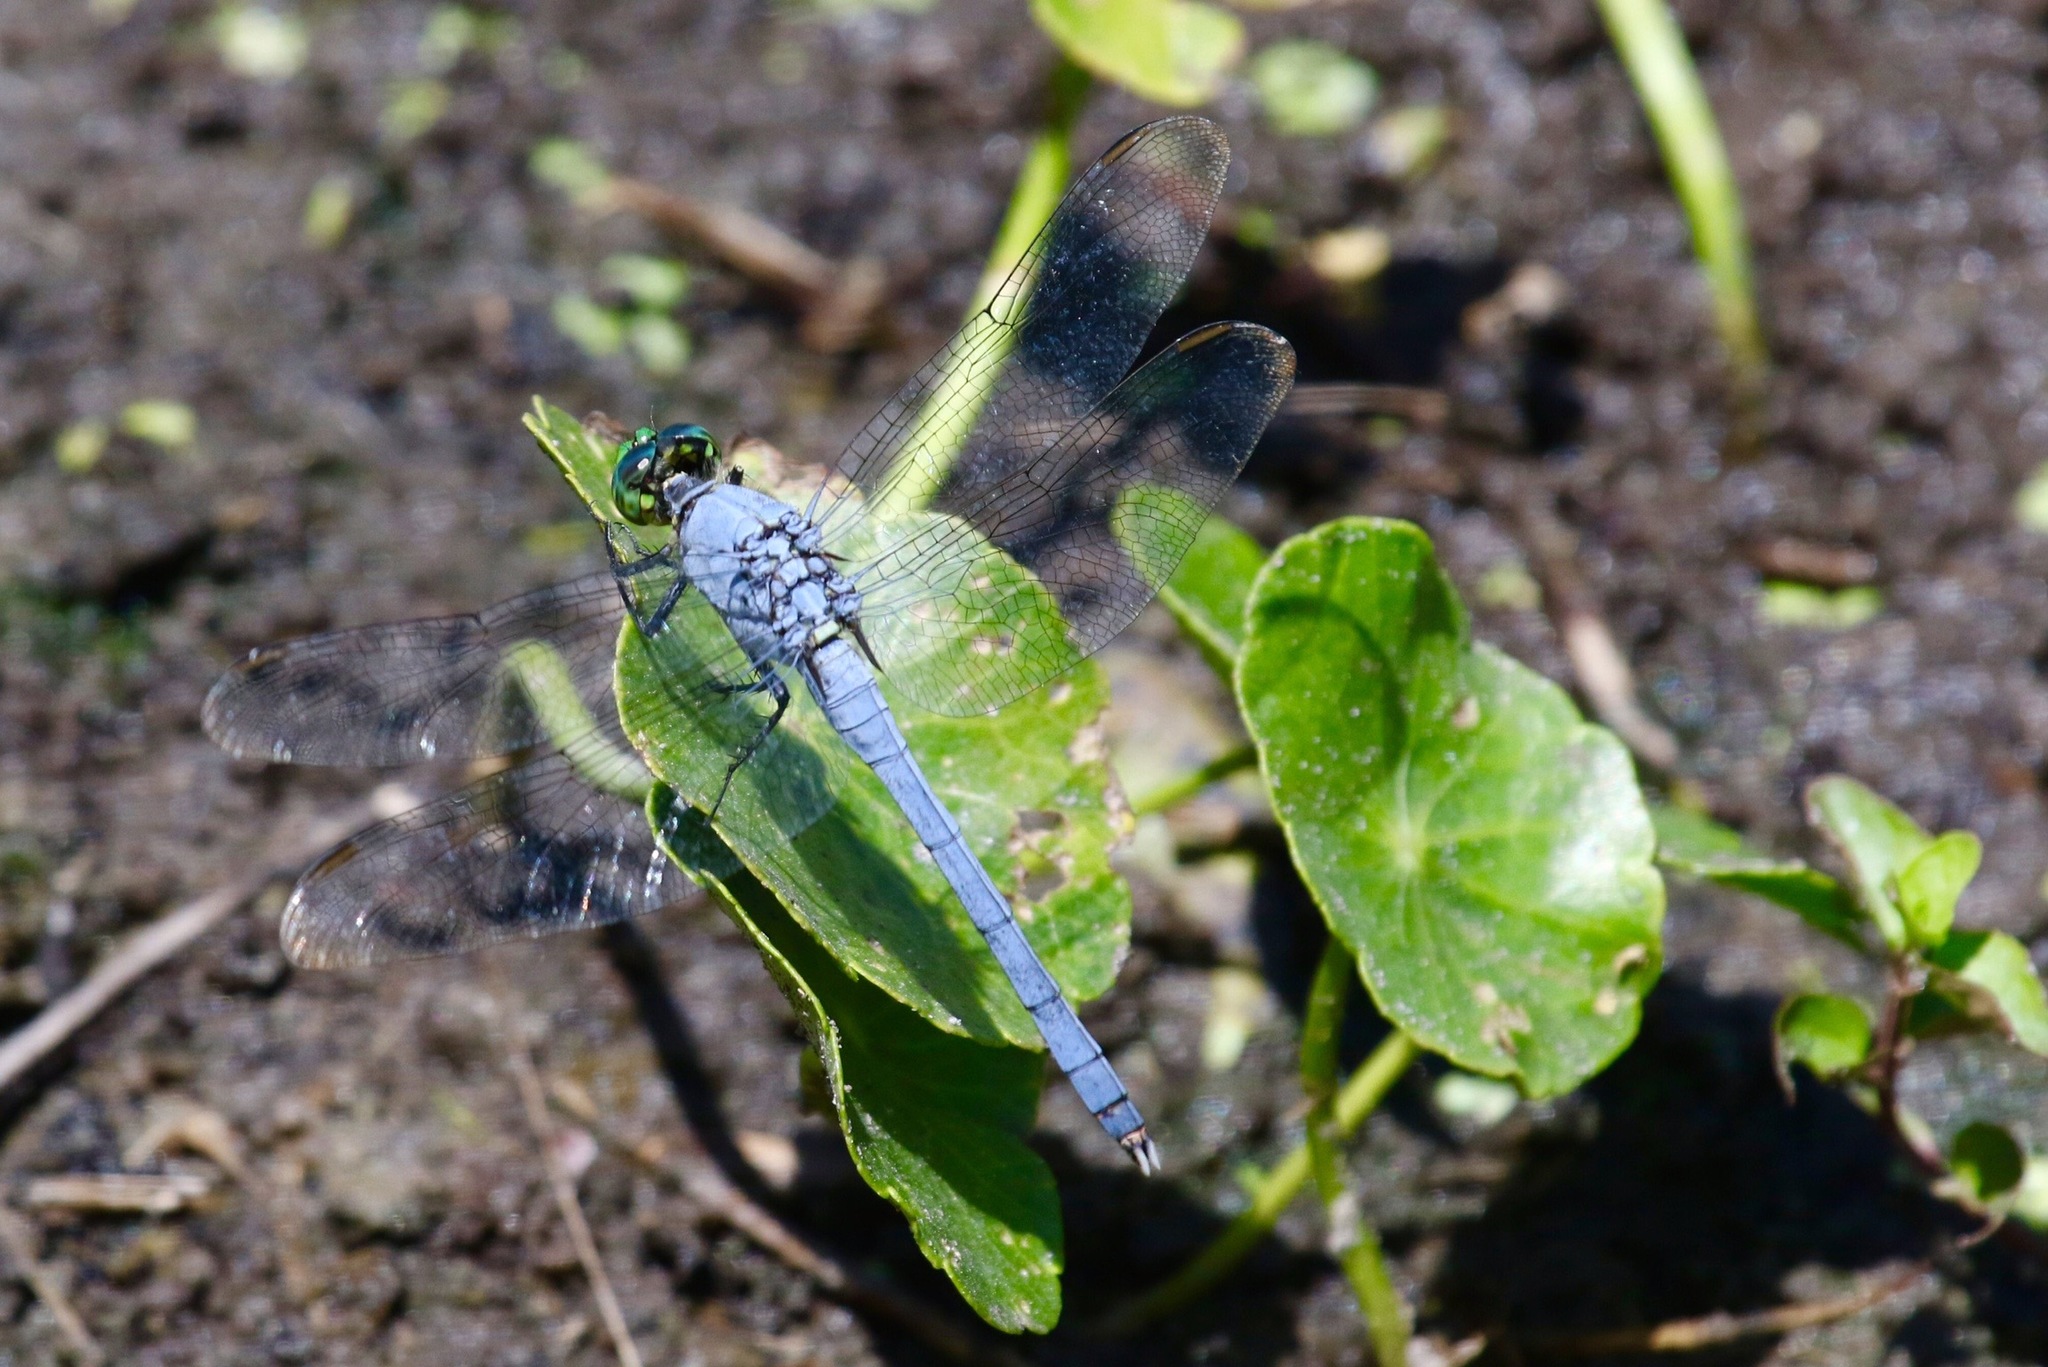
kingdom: Animalia
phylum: Arthropoda
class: Insecta
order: Odonata
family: Libellulidae
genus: Erythemis
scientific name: Erythemis simplicicollis
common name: Eastern pondhawk
